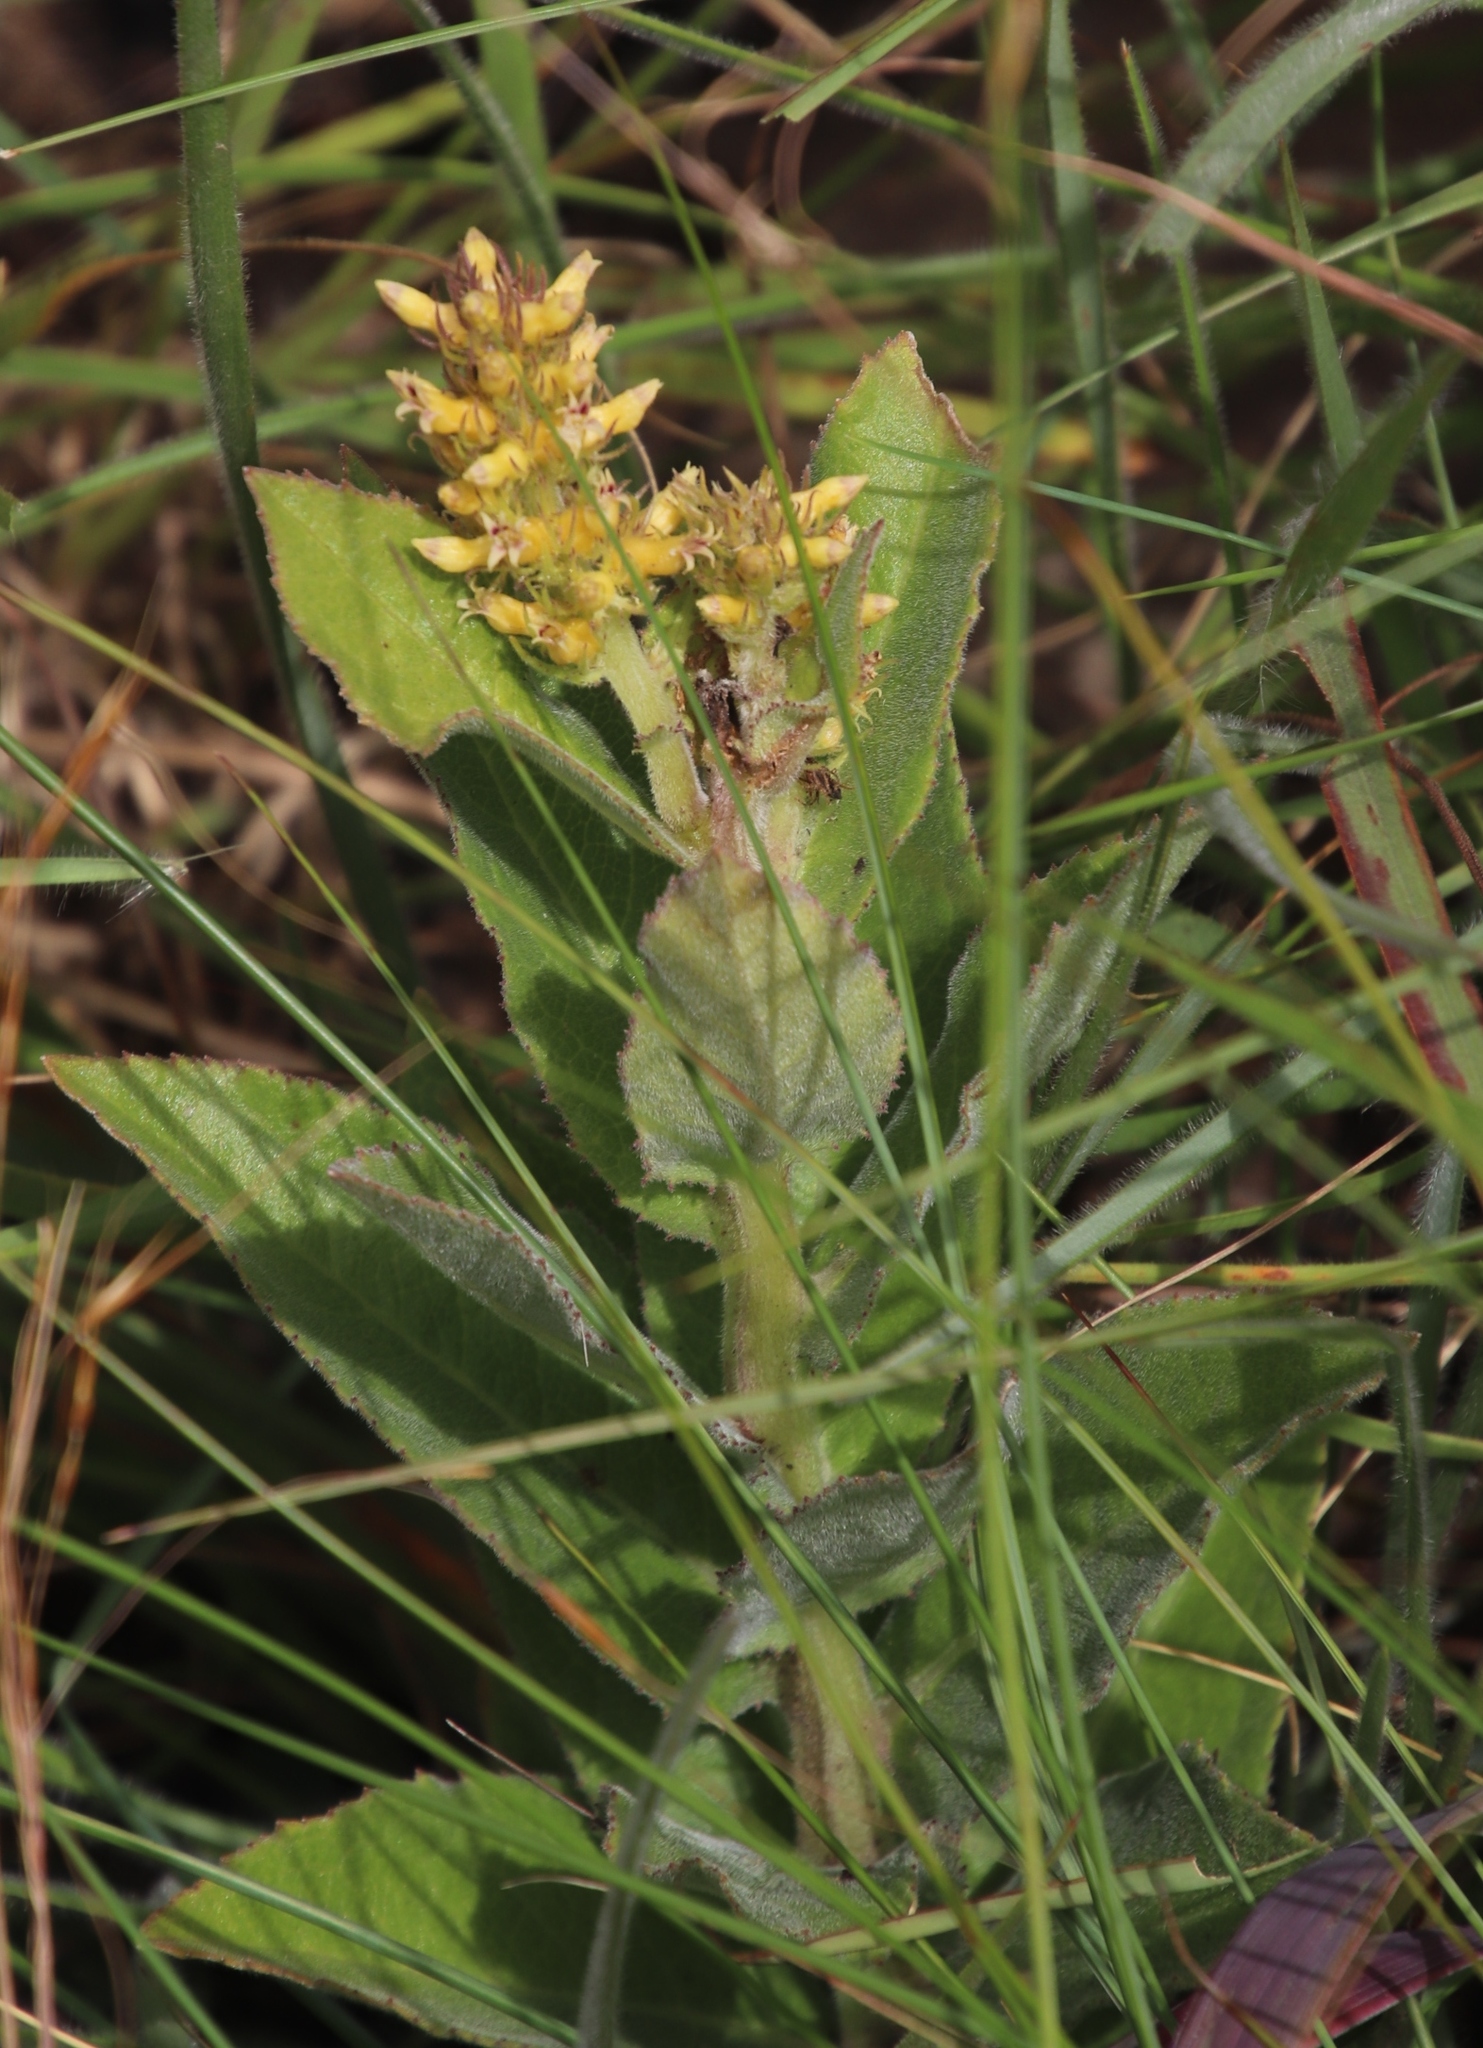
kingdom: Plantae
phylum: Tracheophyta
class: Magnoliopsida
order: Asterales
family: Campanulaceae
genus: Cyphia
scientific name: Cyphia elata
